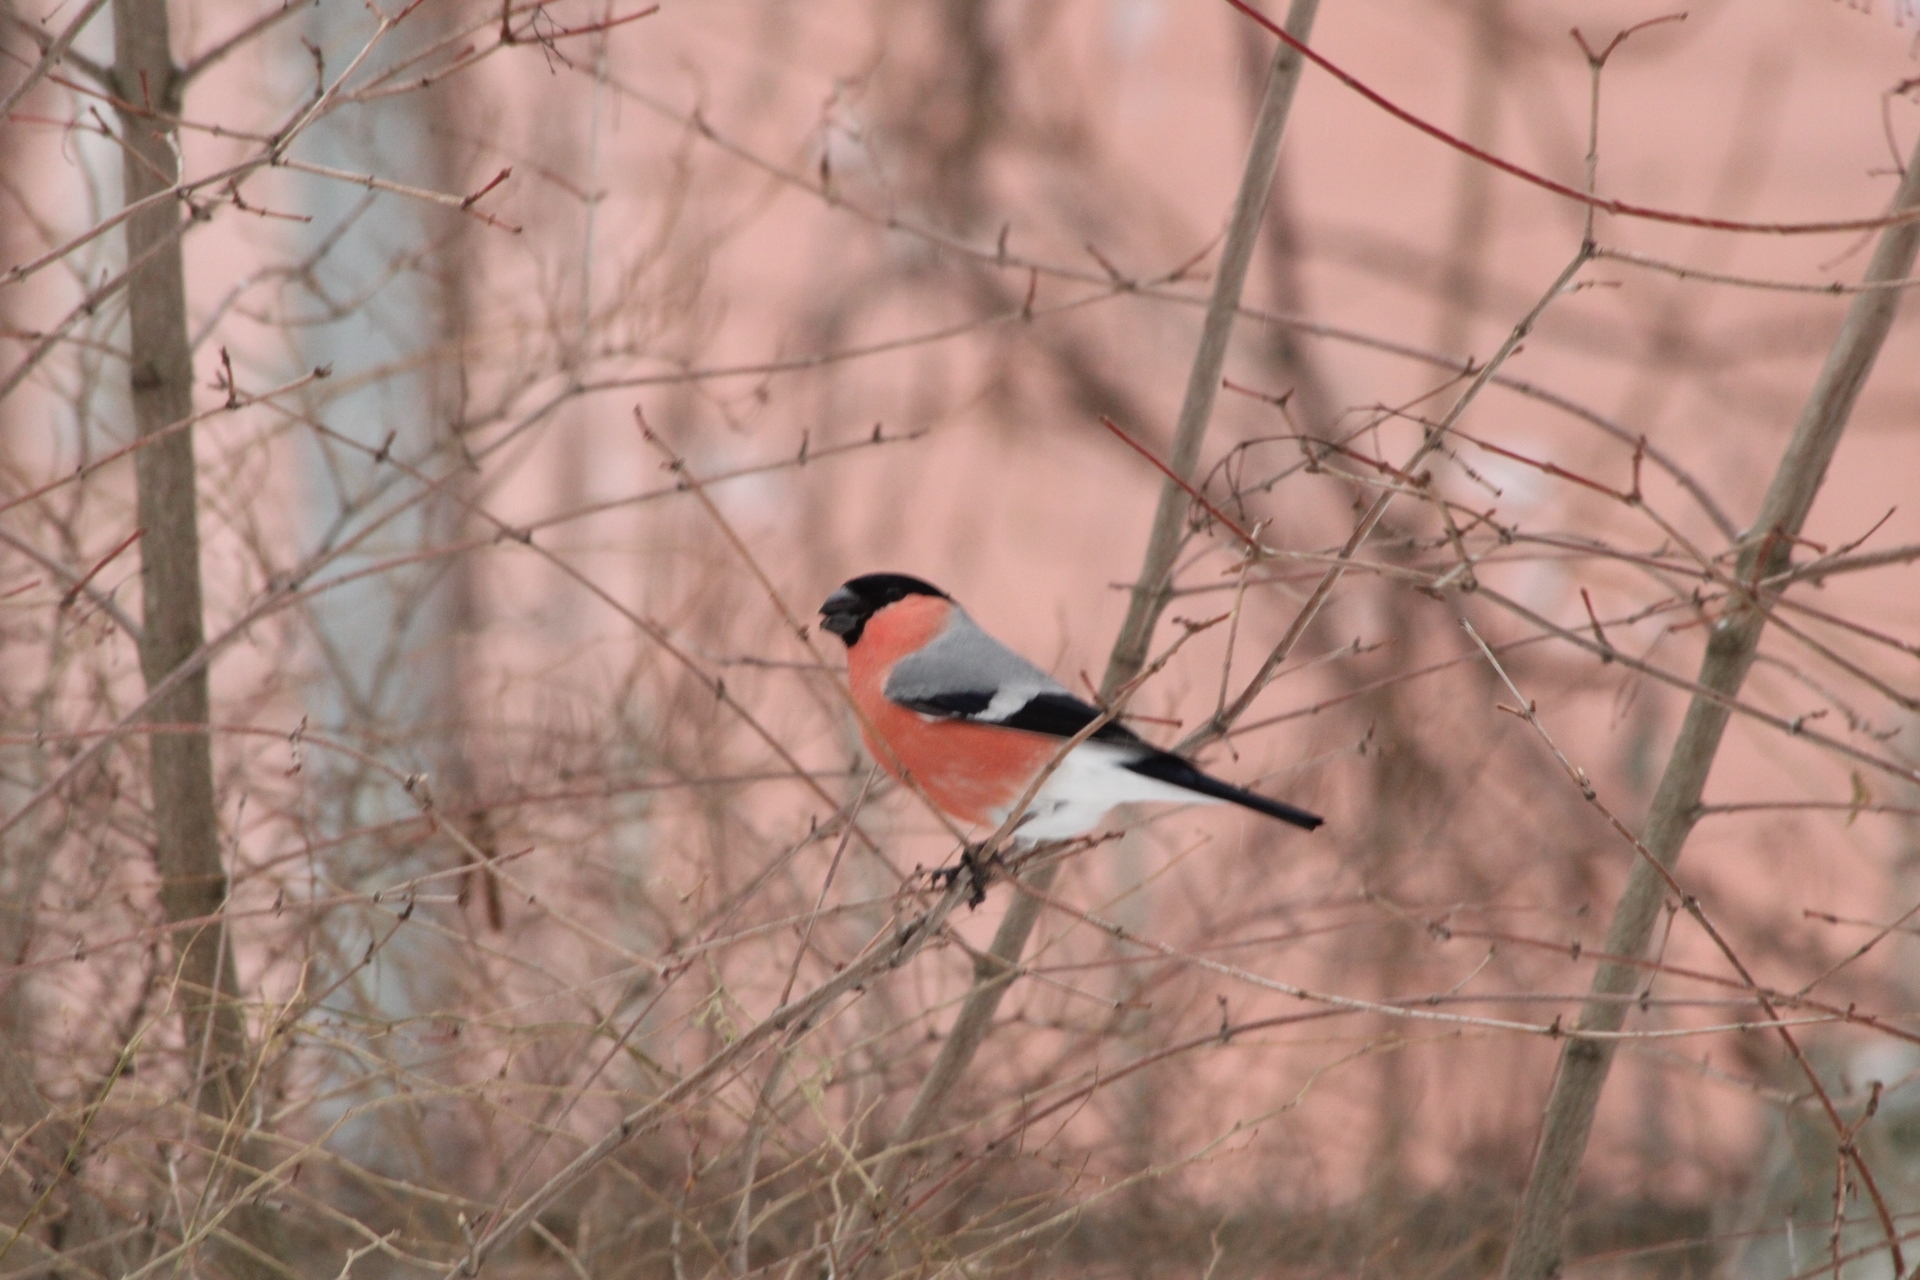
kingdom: Animalia
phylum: Chordata
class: Aves
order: Passeriformes
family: Fringillidae
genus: Pyrrhula
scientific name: Pyrrhula pyrrhula
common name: Eurasian bullfinch
